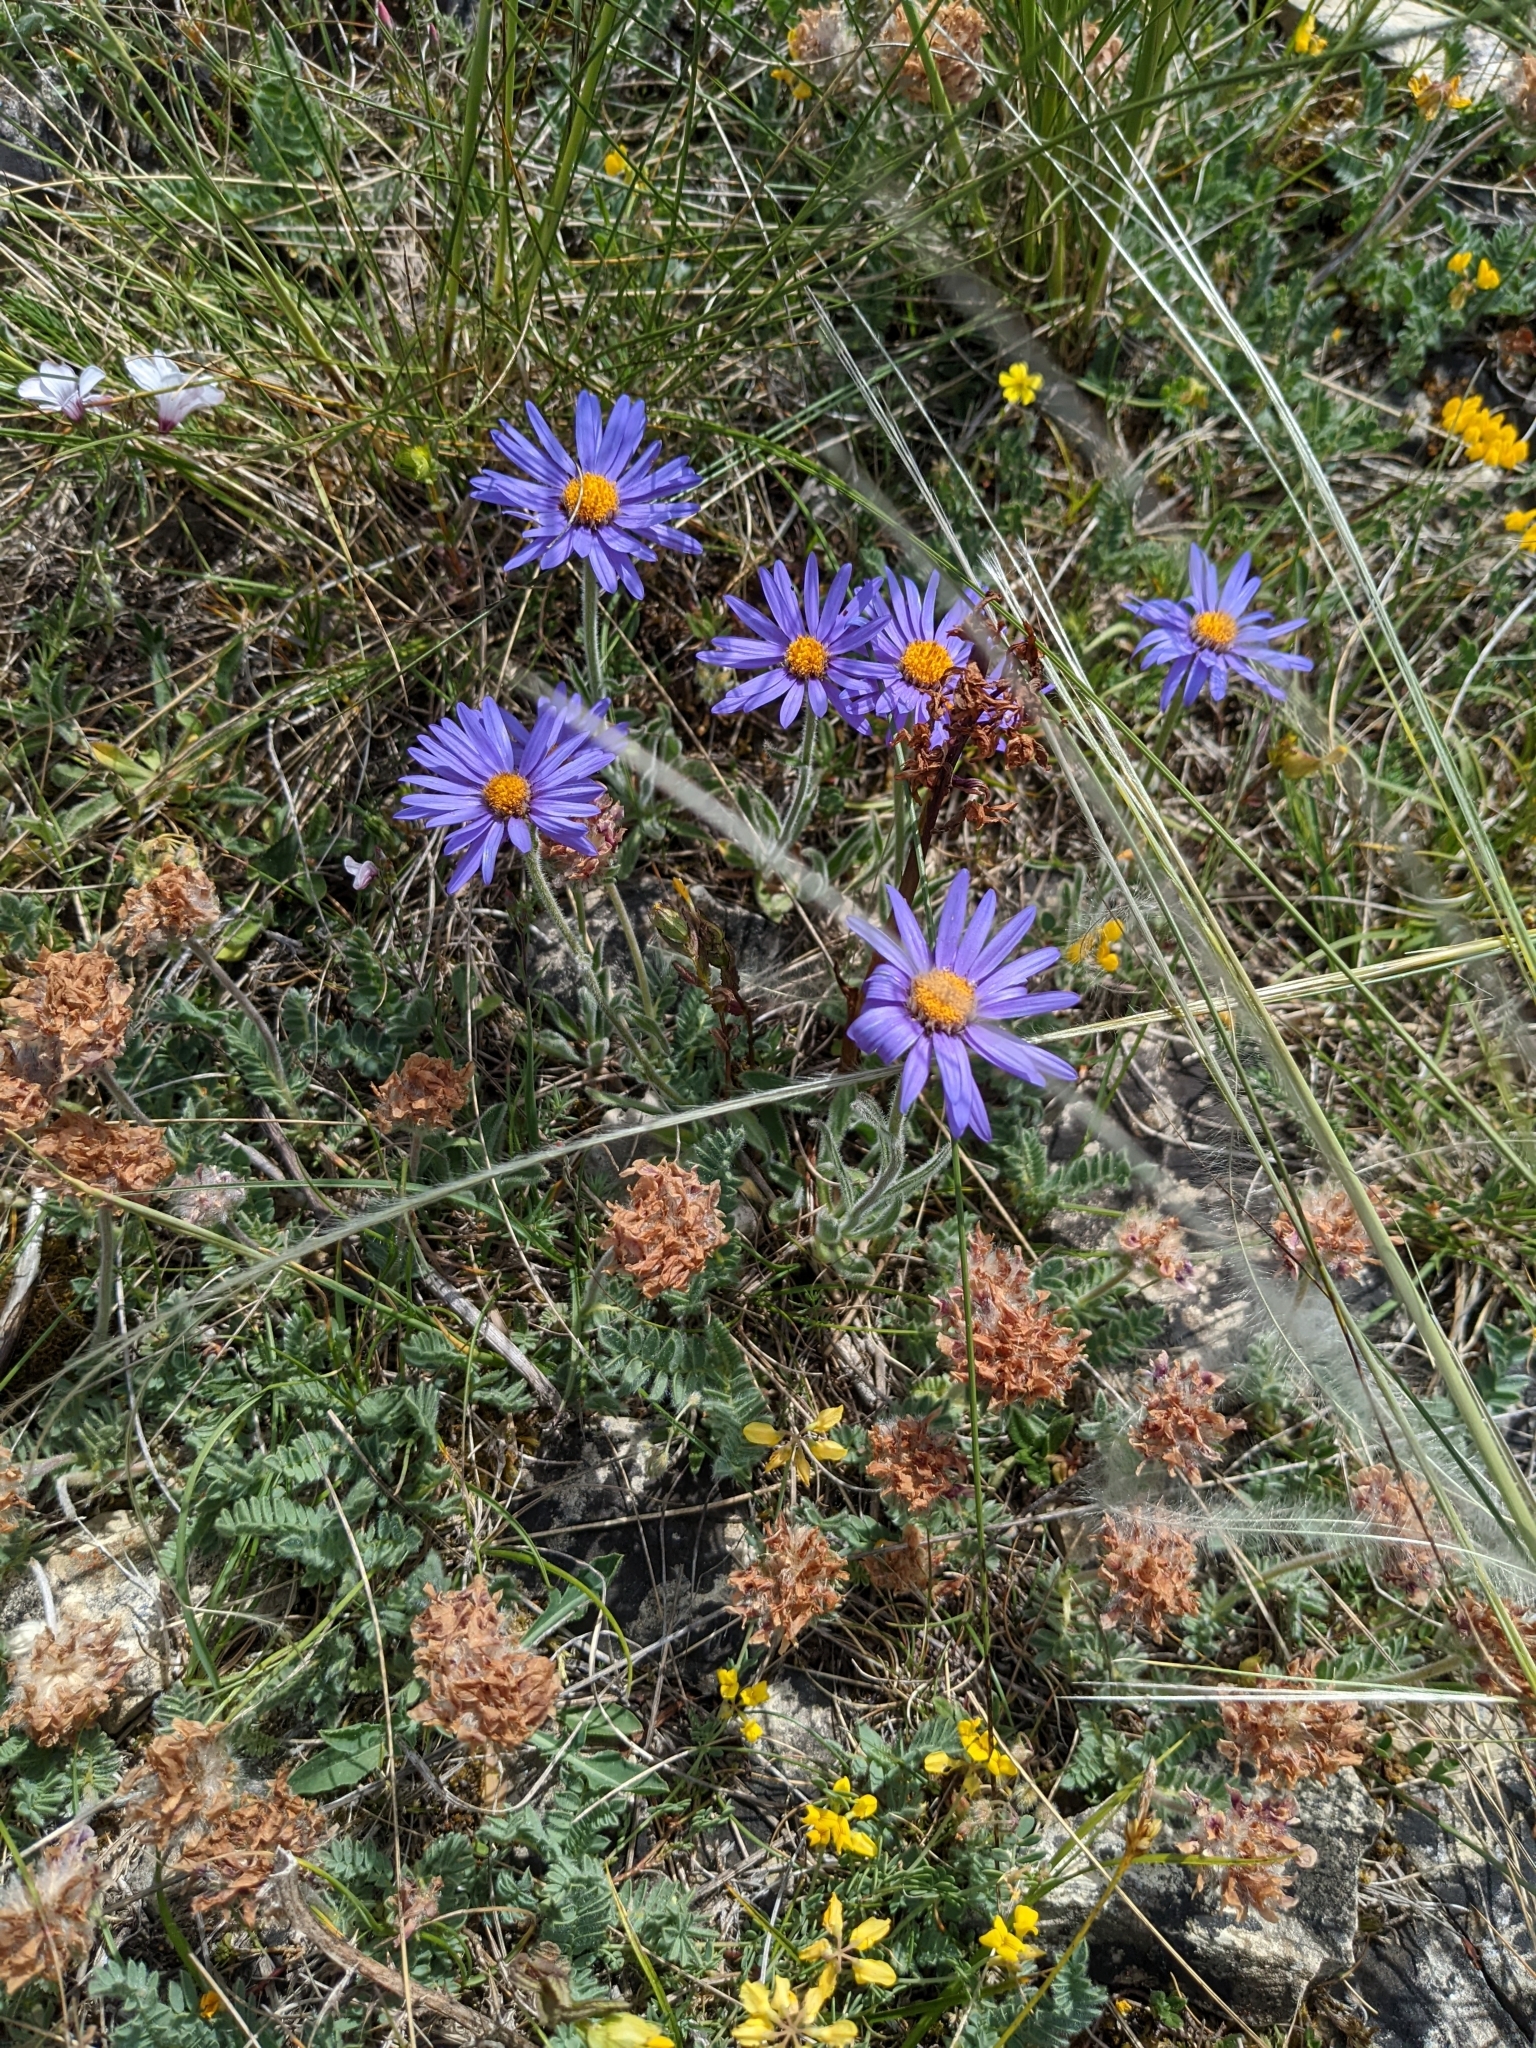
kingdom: Plantae
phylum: Tracheophyta
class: Magnoliopsida
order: Asterales
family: Asteraceae
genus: Aster
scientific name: Aster alpinus
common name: Alpine aster
